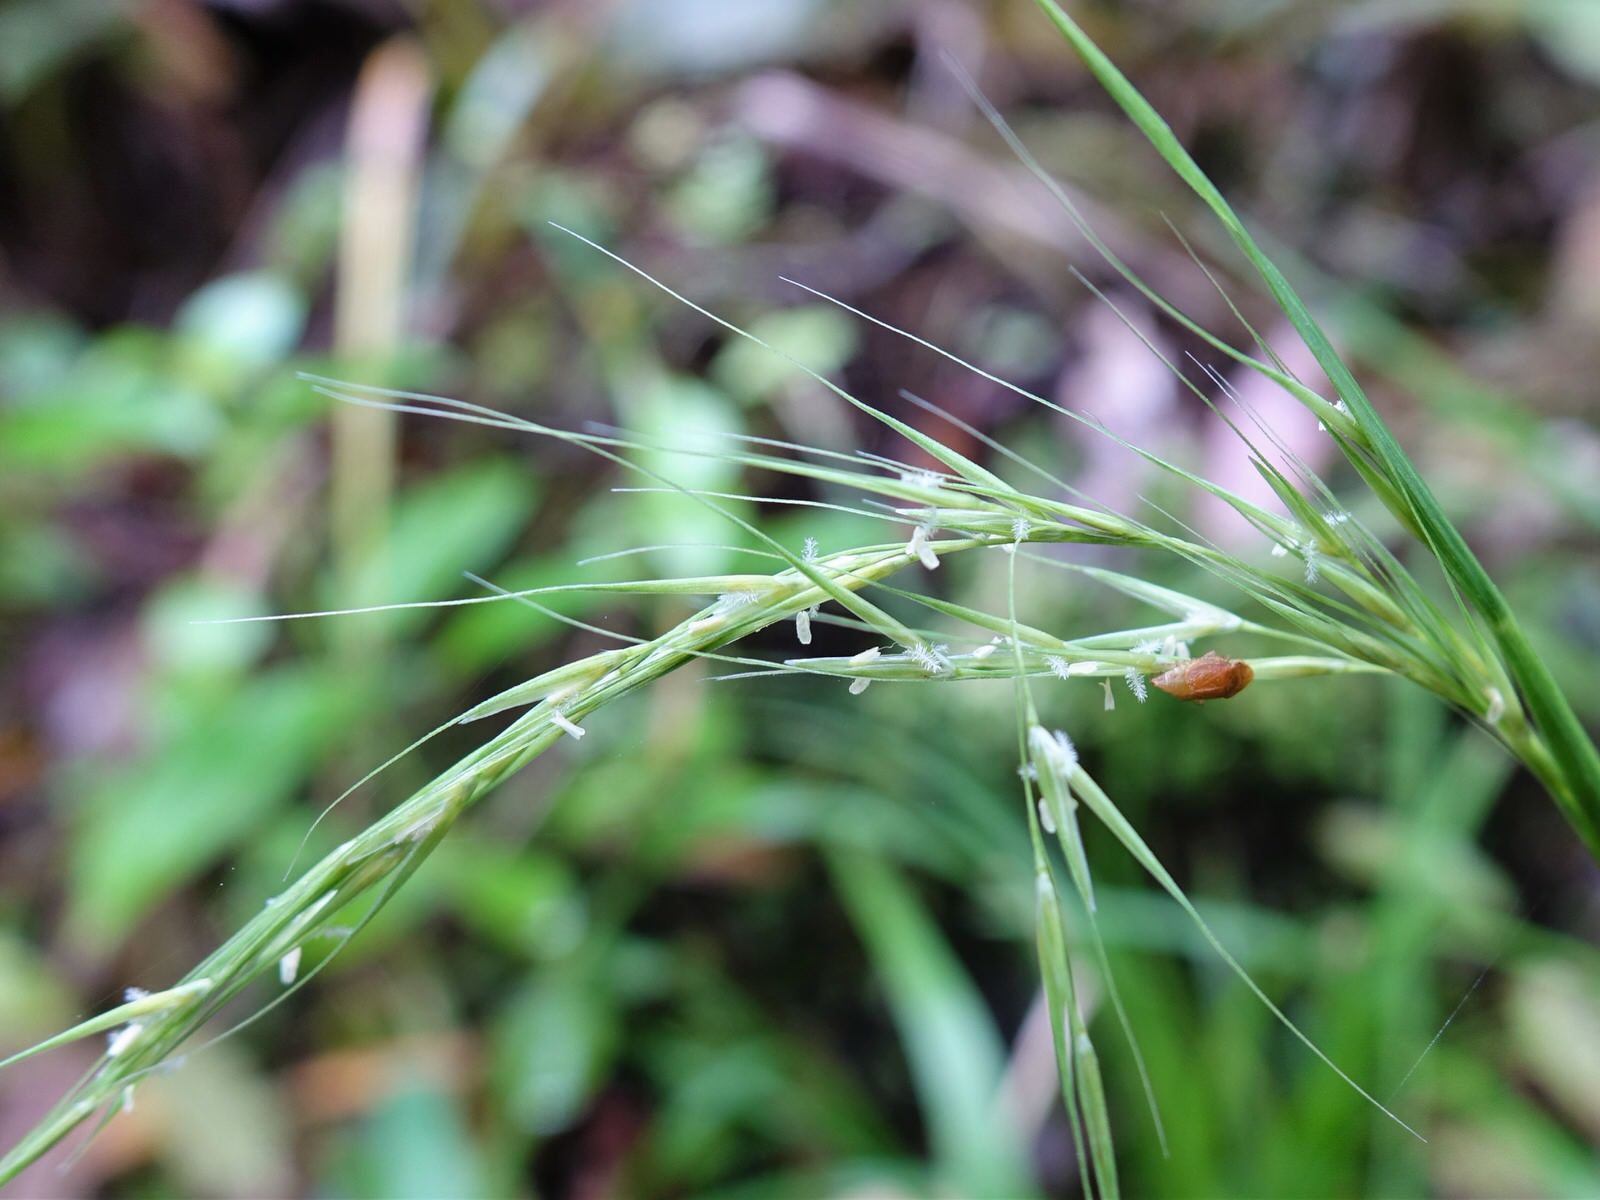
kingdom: Plantae
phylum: Tracheophyta
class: Liliopsida
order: Poales
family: Poaceae
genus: Ehrharta
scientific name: Ehrharta diplax
